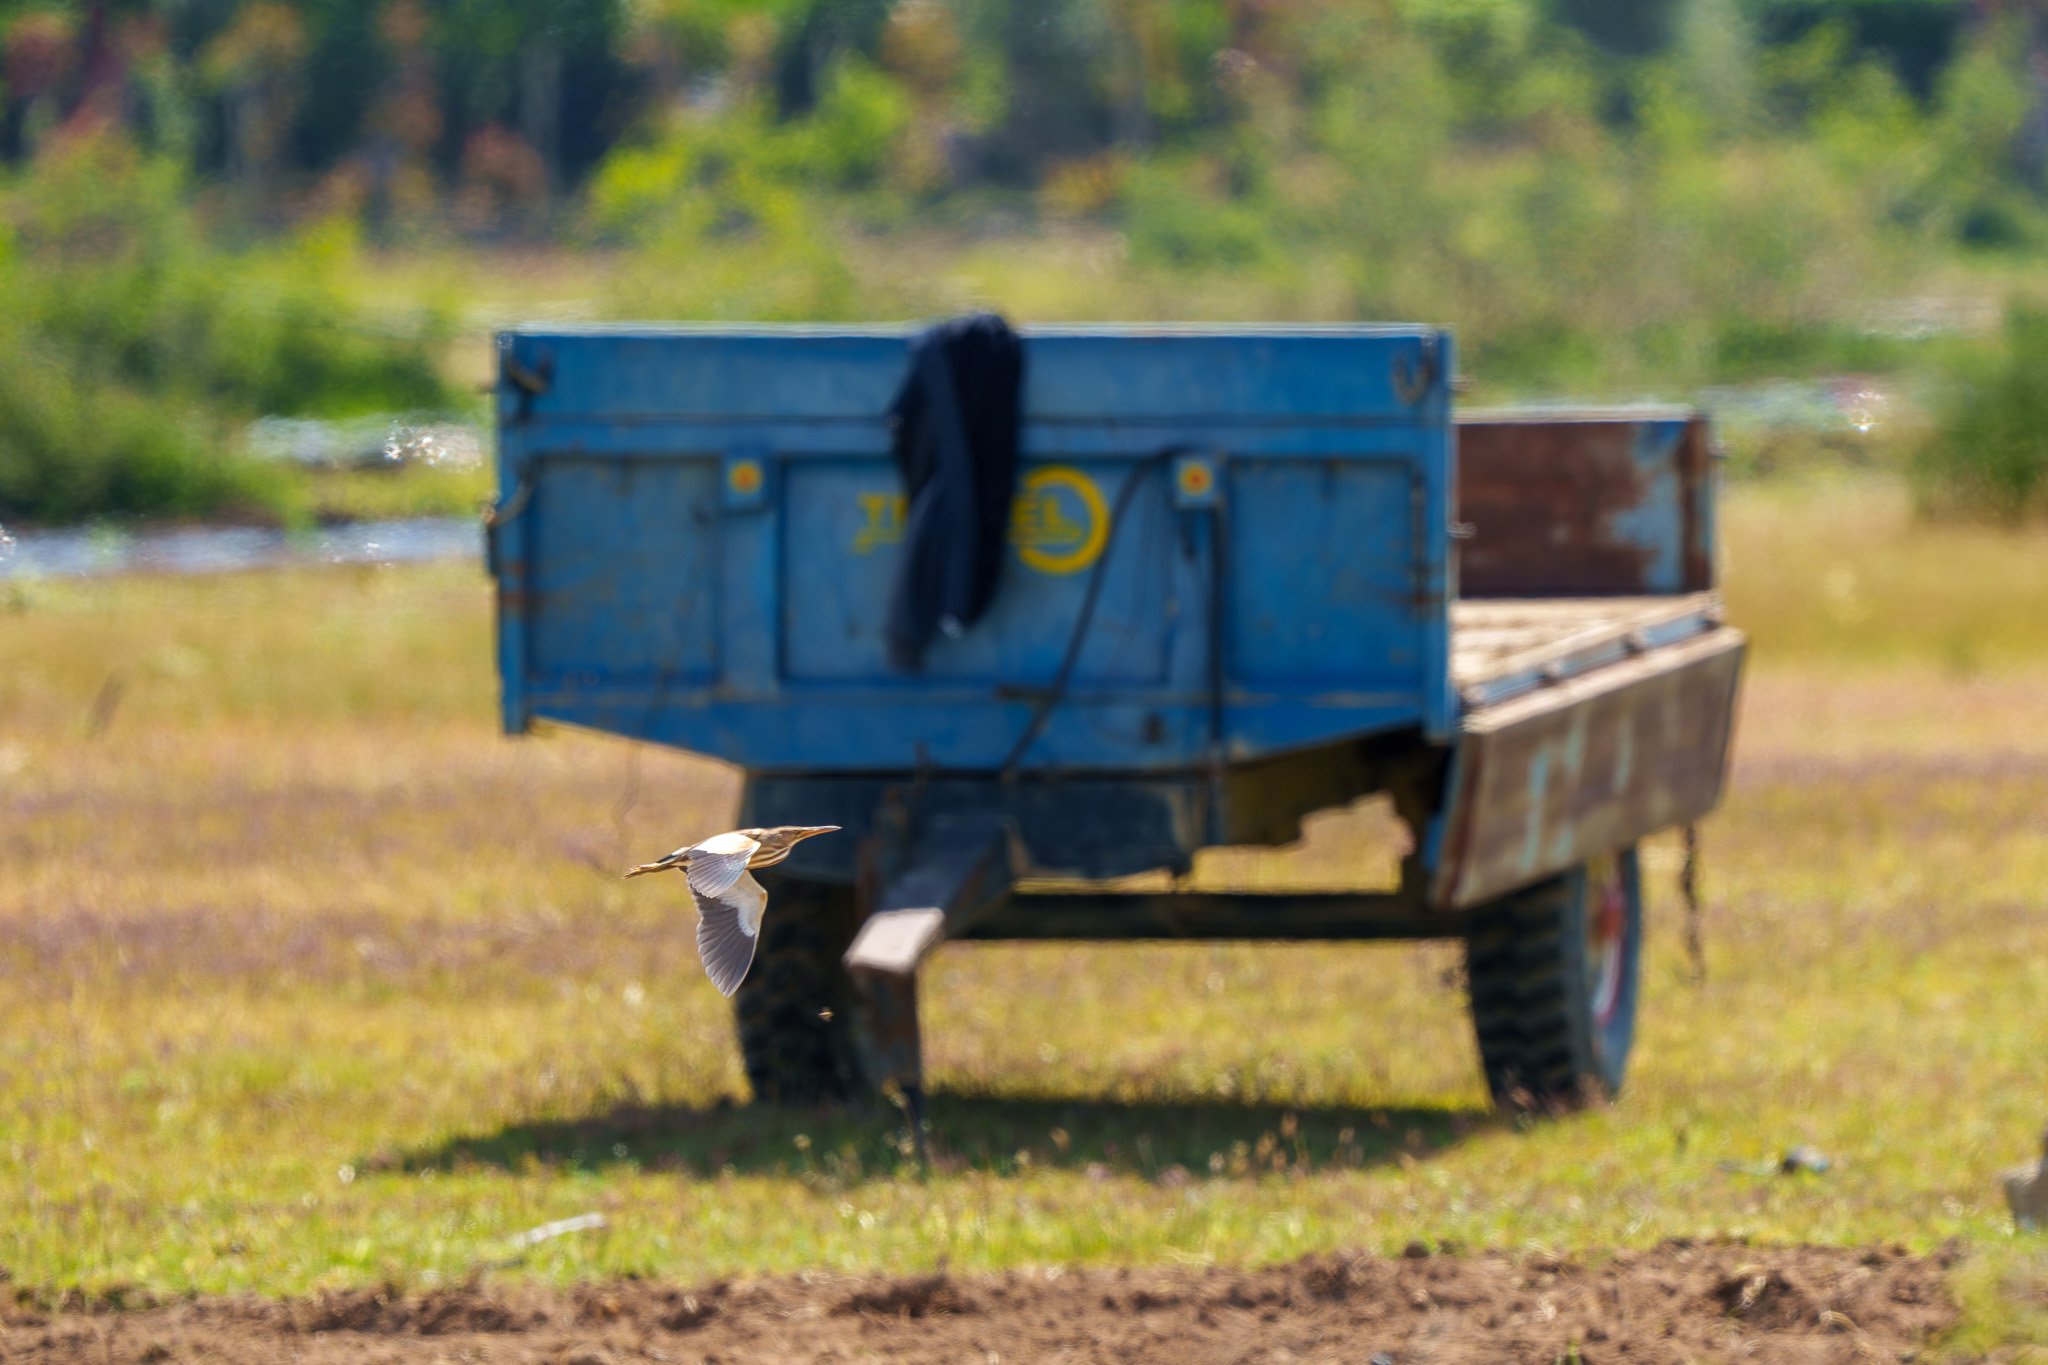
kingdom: Animalia
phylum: Chordata
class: Aves
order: Pelecaniformes
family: Ardeidae
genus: Ixobrychus
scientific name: Ixobrychus minutus
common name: Little bittern
